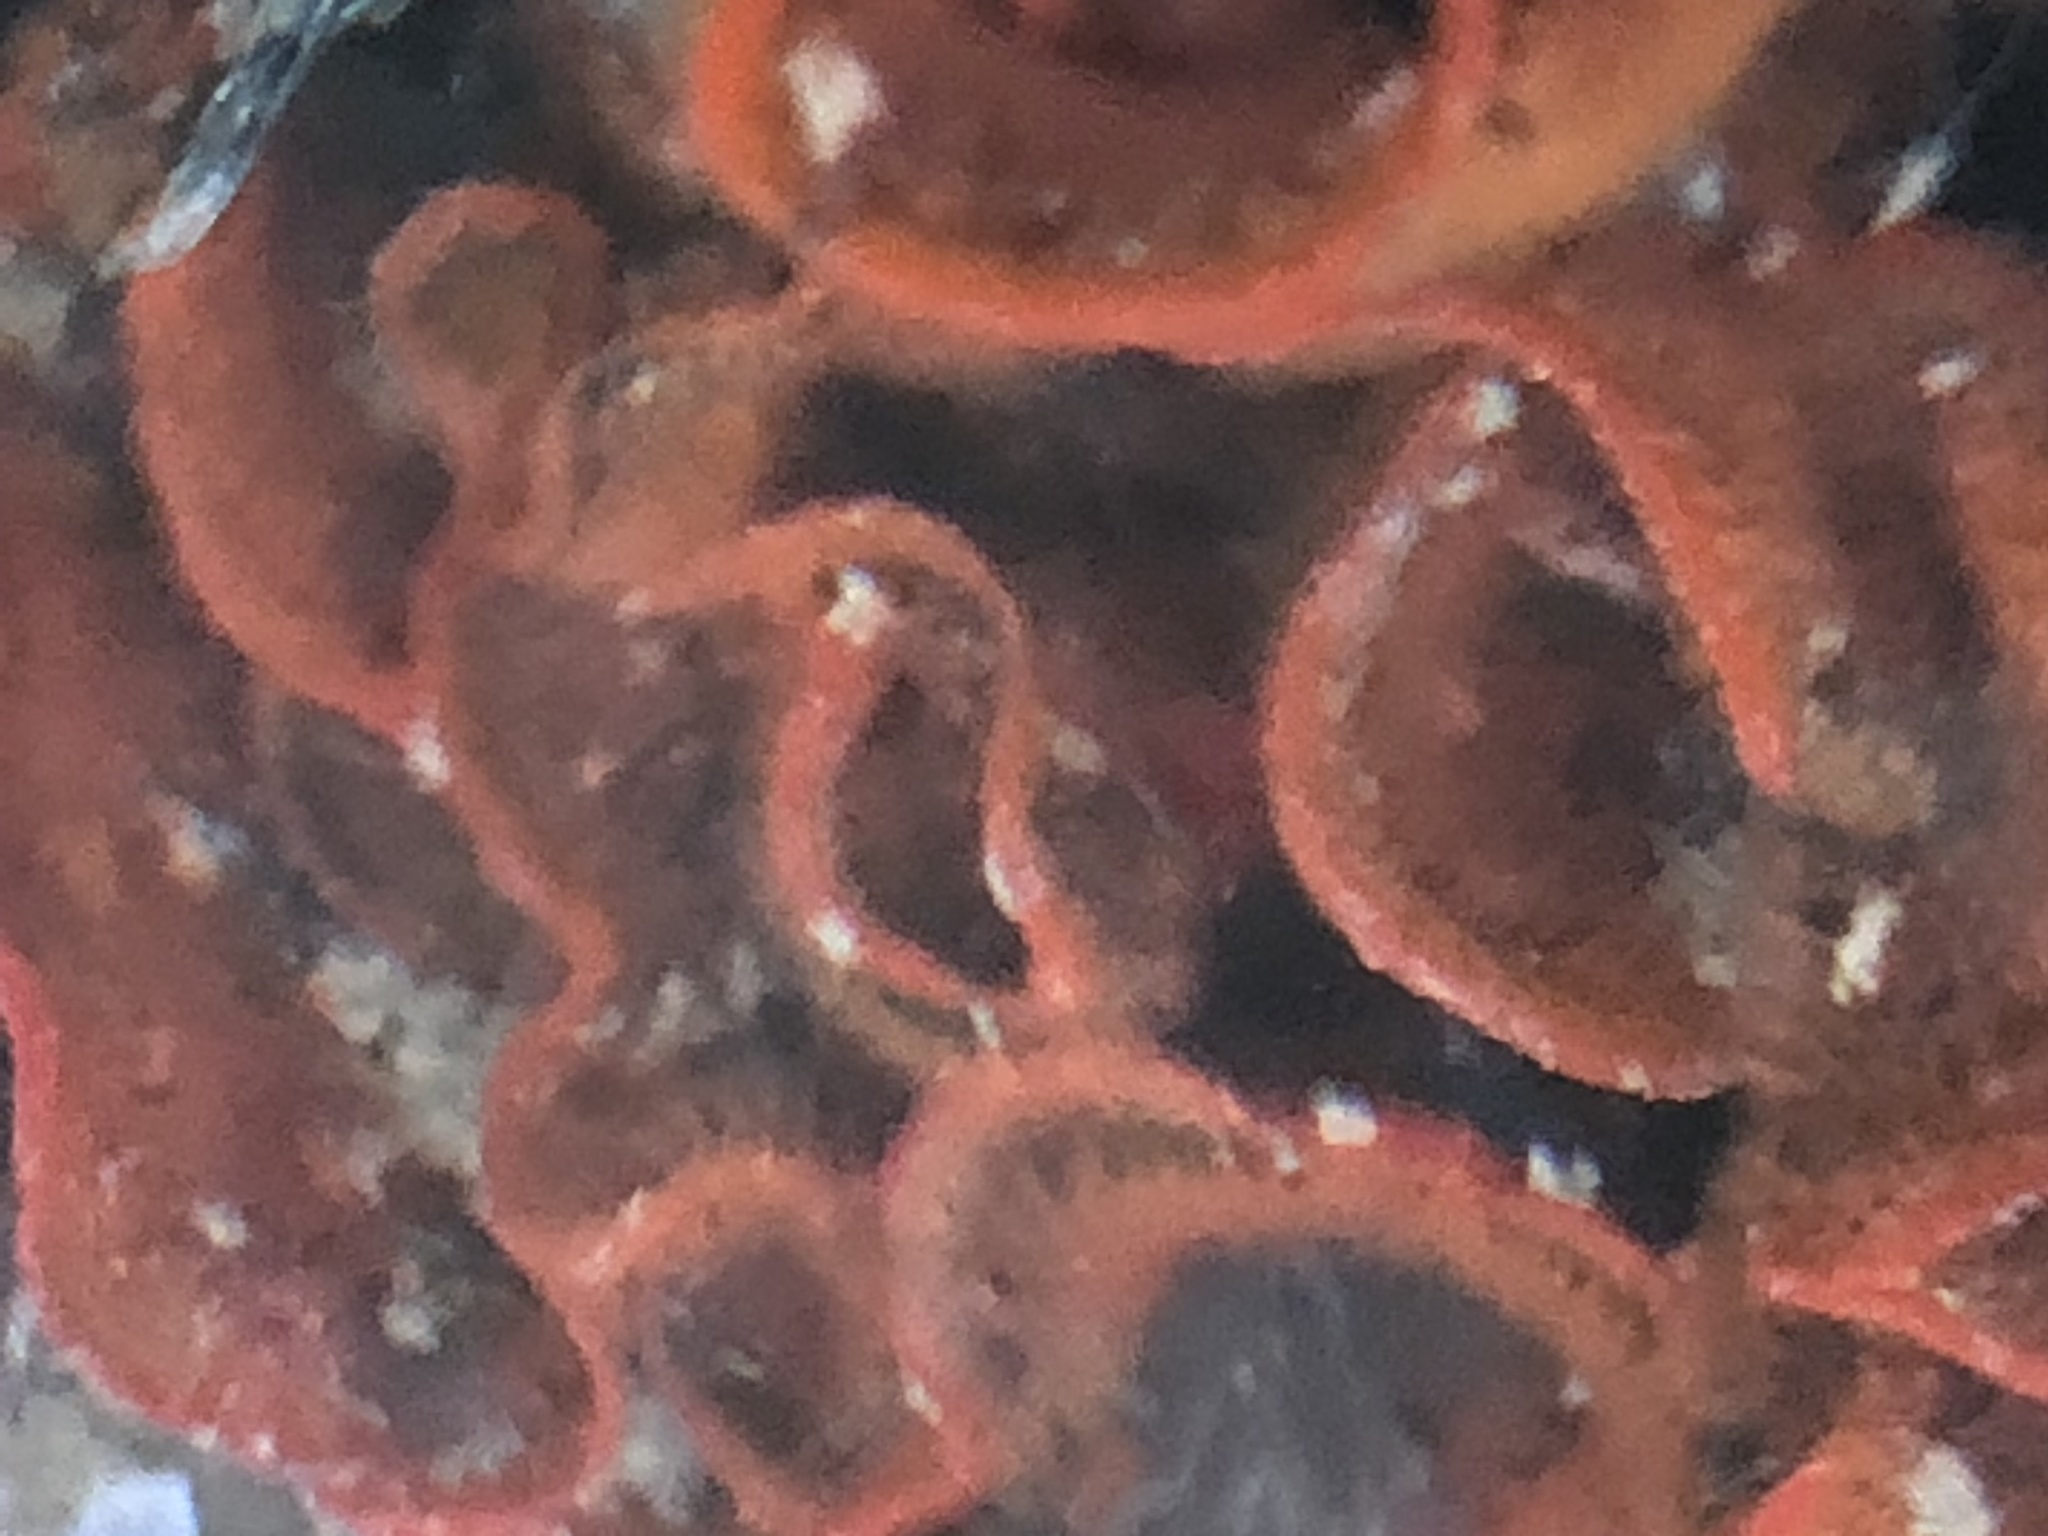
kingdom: Animalia
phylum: Bryozoa
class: Gymnolaemata
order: Cheilostomatida
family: Watersiporidae
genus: Watersipora
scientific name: Watersipora subtorquata
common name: Bryozoan
